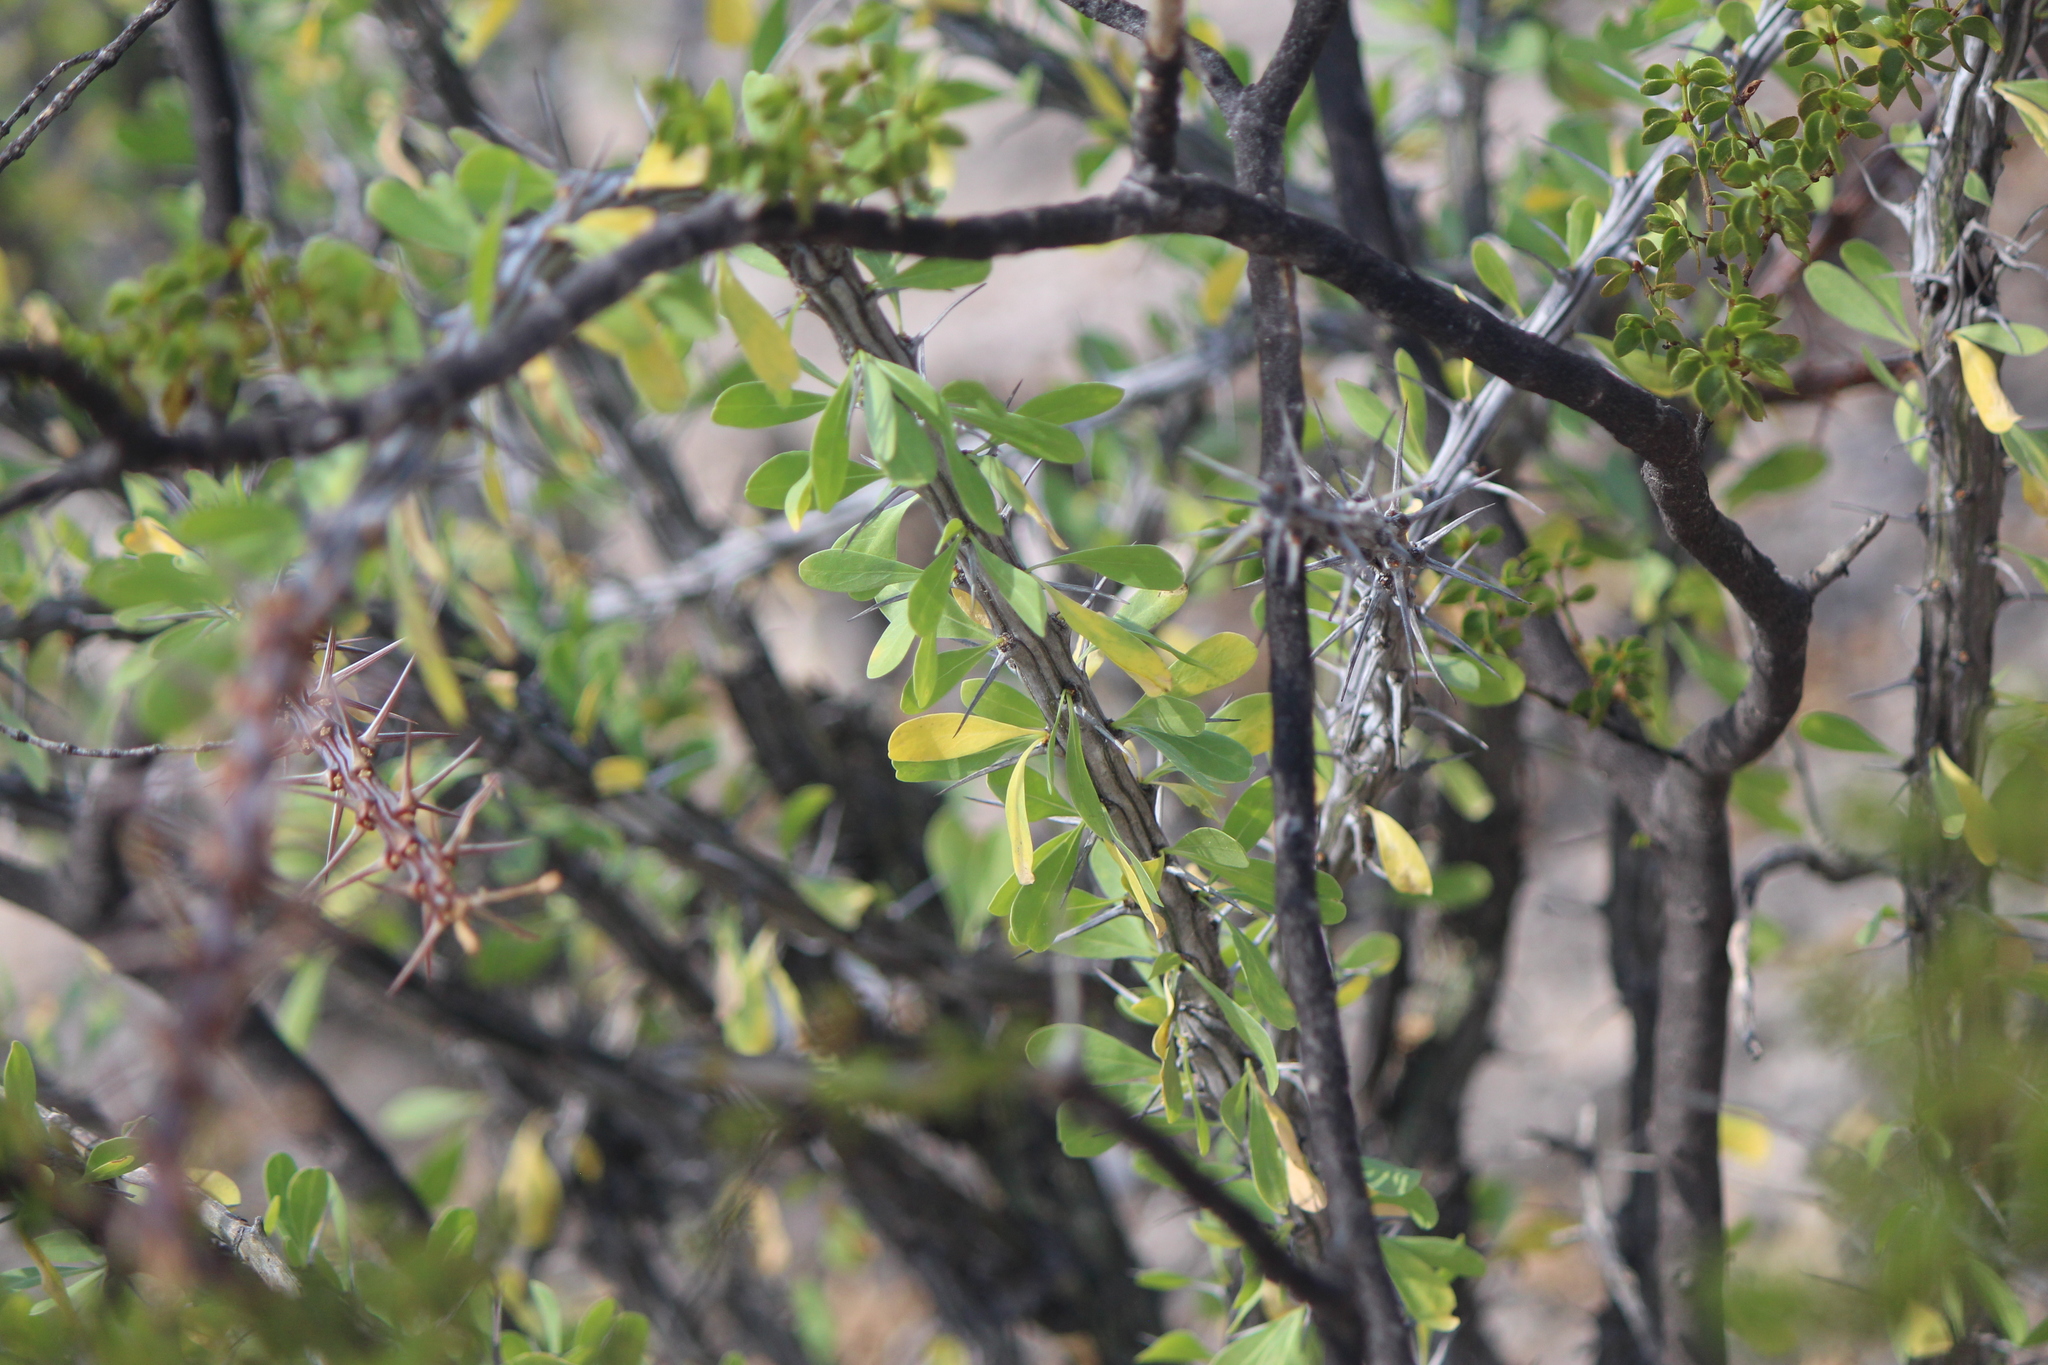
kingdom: Plantae
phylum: Tracheophyta
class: Magnoliopsida
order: Ericales
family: Fouquieriaceae
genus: Fouquieria
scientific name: Fouquieria splendens
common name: Vine-cactus
